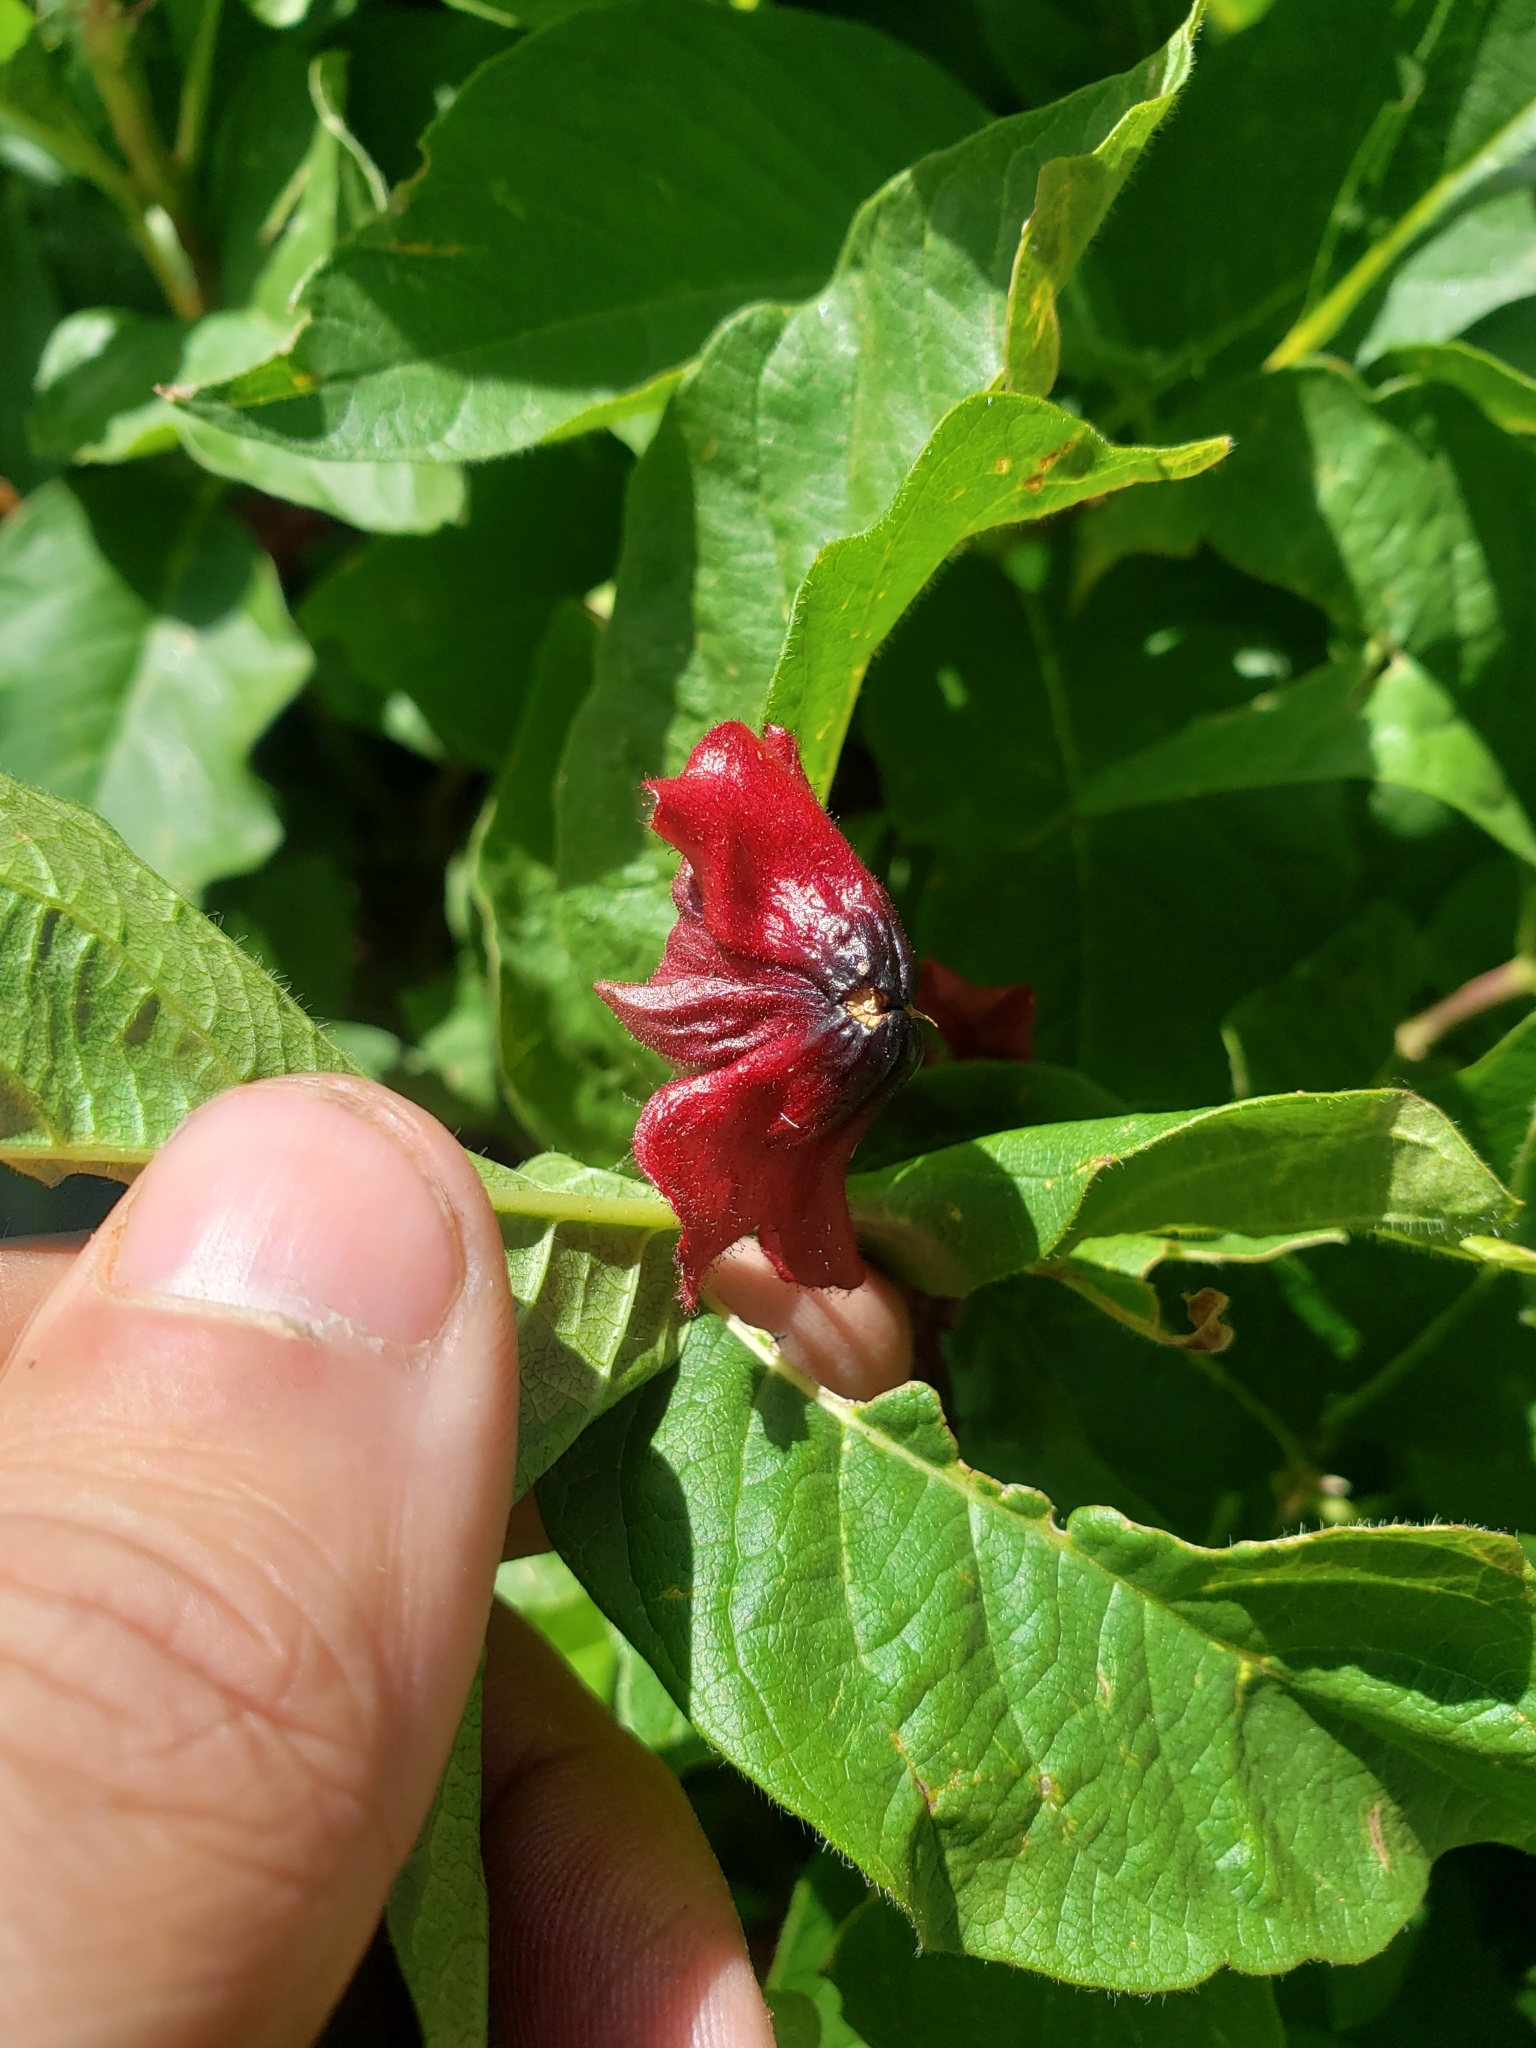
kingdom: Plantae
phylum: Tracheophyta
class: Magnoliopsida
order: Dipsacales
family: Caprifoliaceae
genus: Lonicera
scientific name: Lonicera involucrata
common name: Californian honeysuckle
